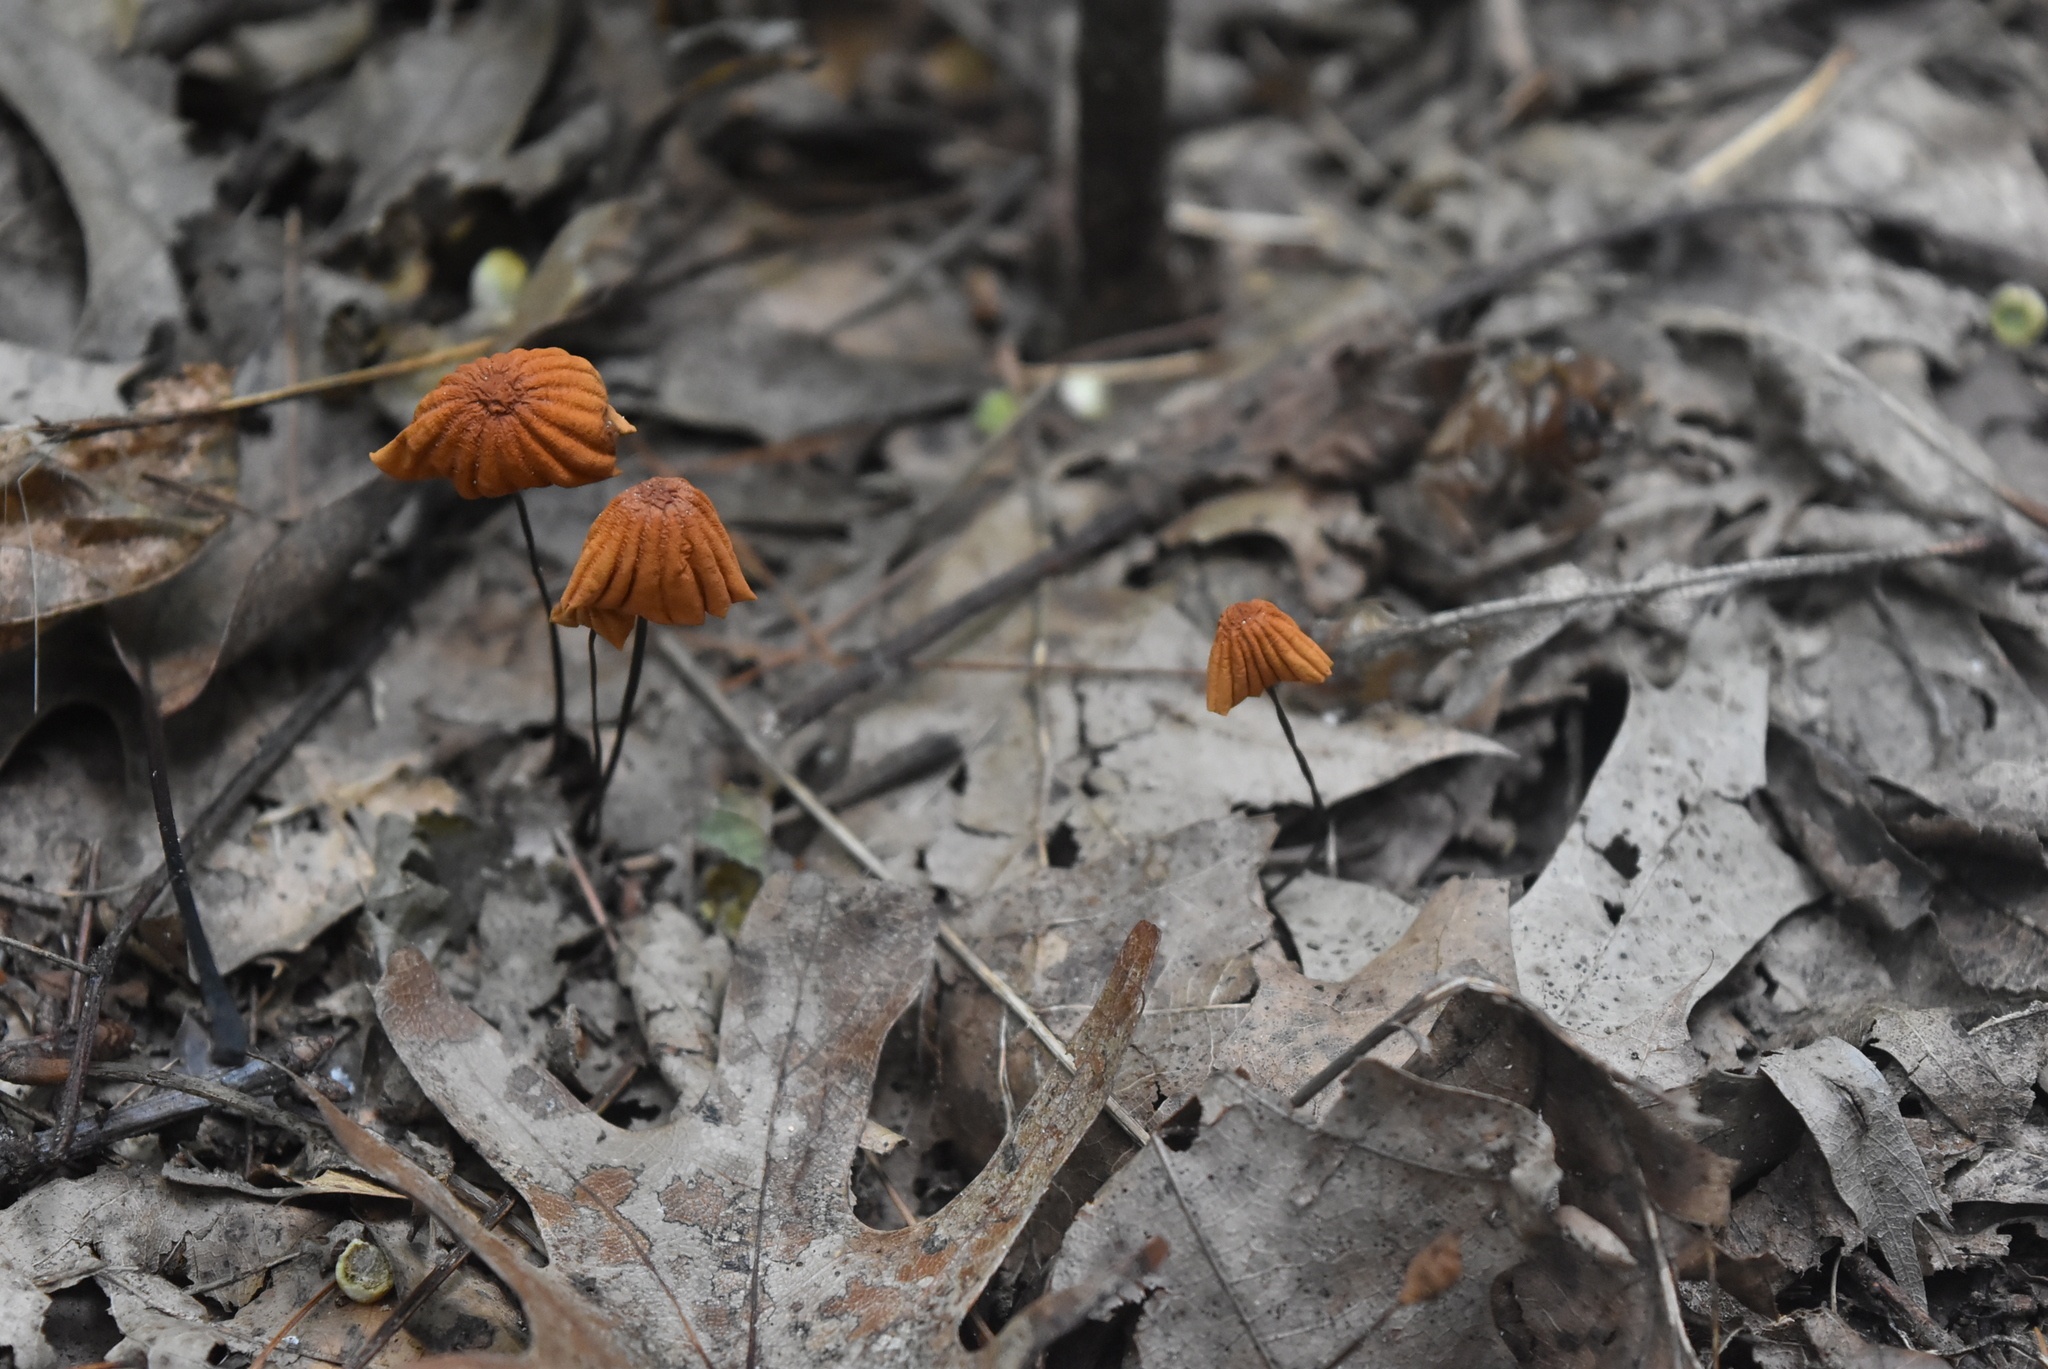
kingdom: Fungi
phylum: Basidiomycota
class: Agaricomycetes
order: Agaricales
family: Marasmiaceae
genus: Marasmius
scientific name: Marasmius siccus
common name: Orange pinwheel
